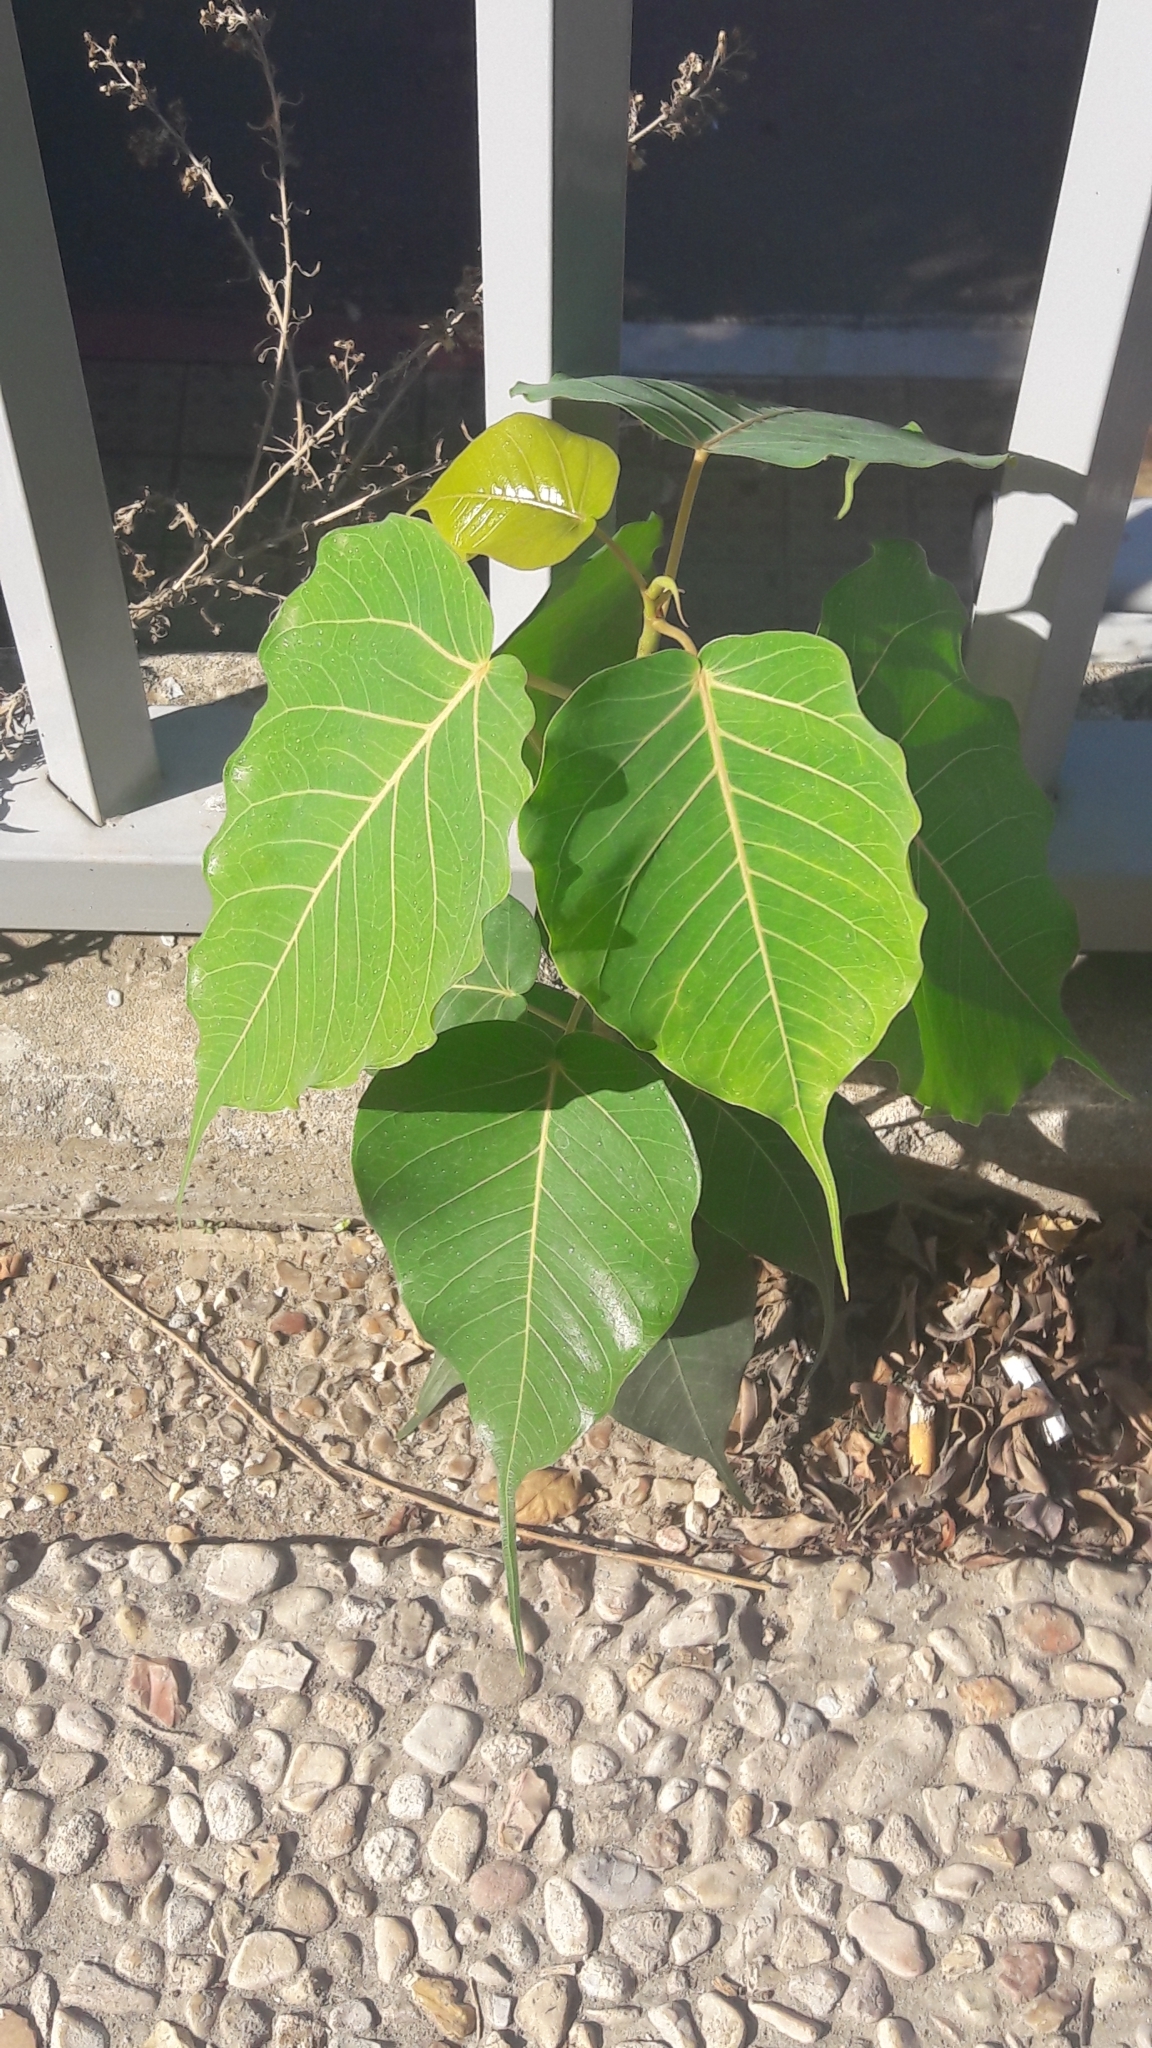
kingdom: Plantae
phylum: Tracheophyta
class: Magnoliopsida
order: Rosales
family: Moraceae
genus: Ficus
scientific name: Ficus religiosa
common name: Bodhi tree
